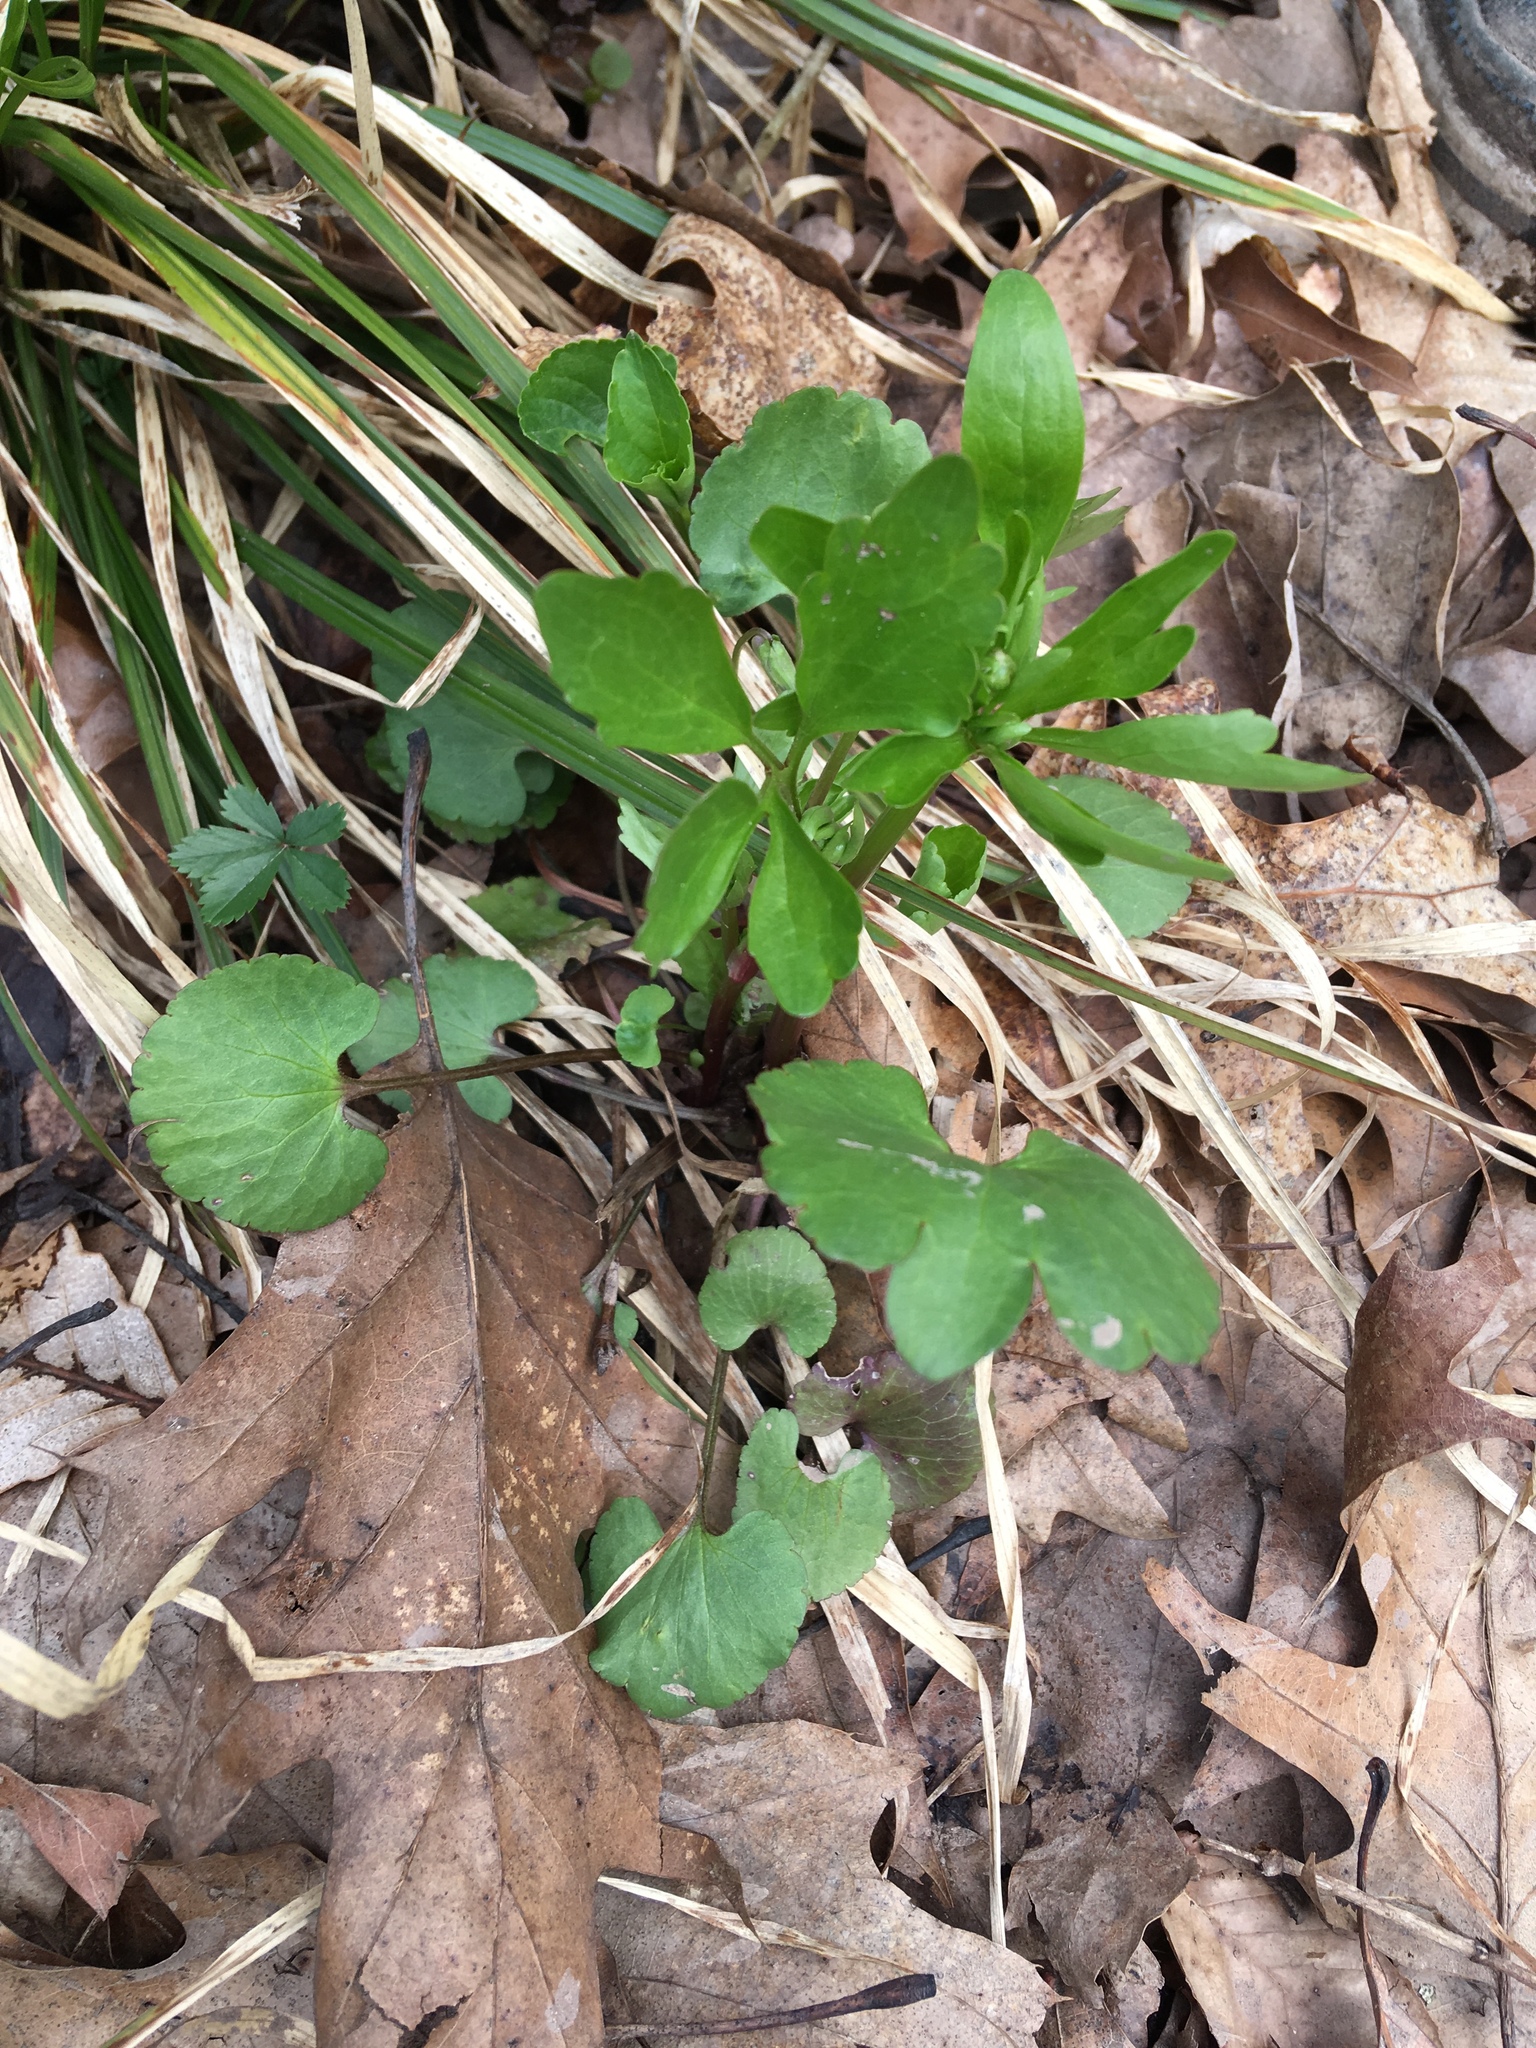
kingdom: Plantae
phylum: Tracheophyta
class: Magnoliopsida
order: Ranunculales
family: Ranunculaceae
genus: Ranunculus
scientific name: Ranunculus abortivus
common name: Early wood buttercup
